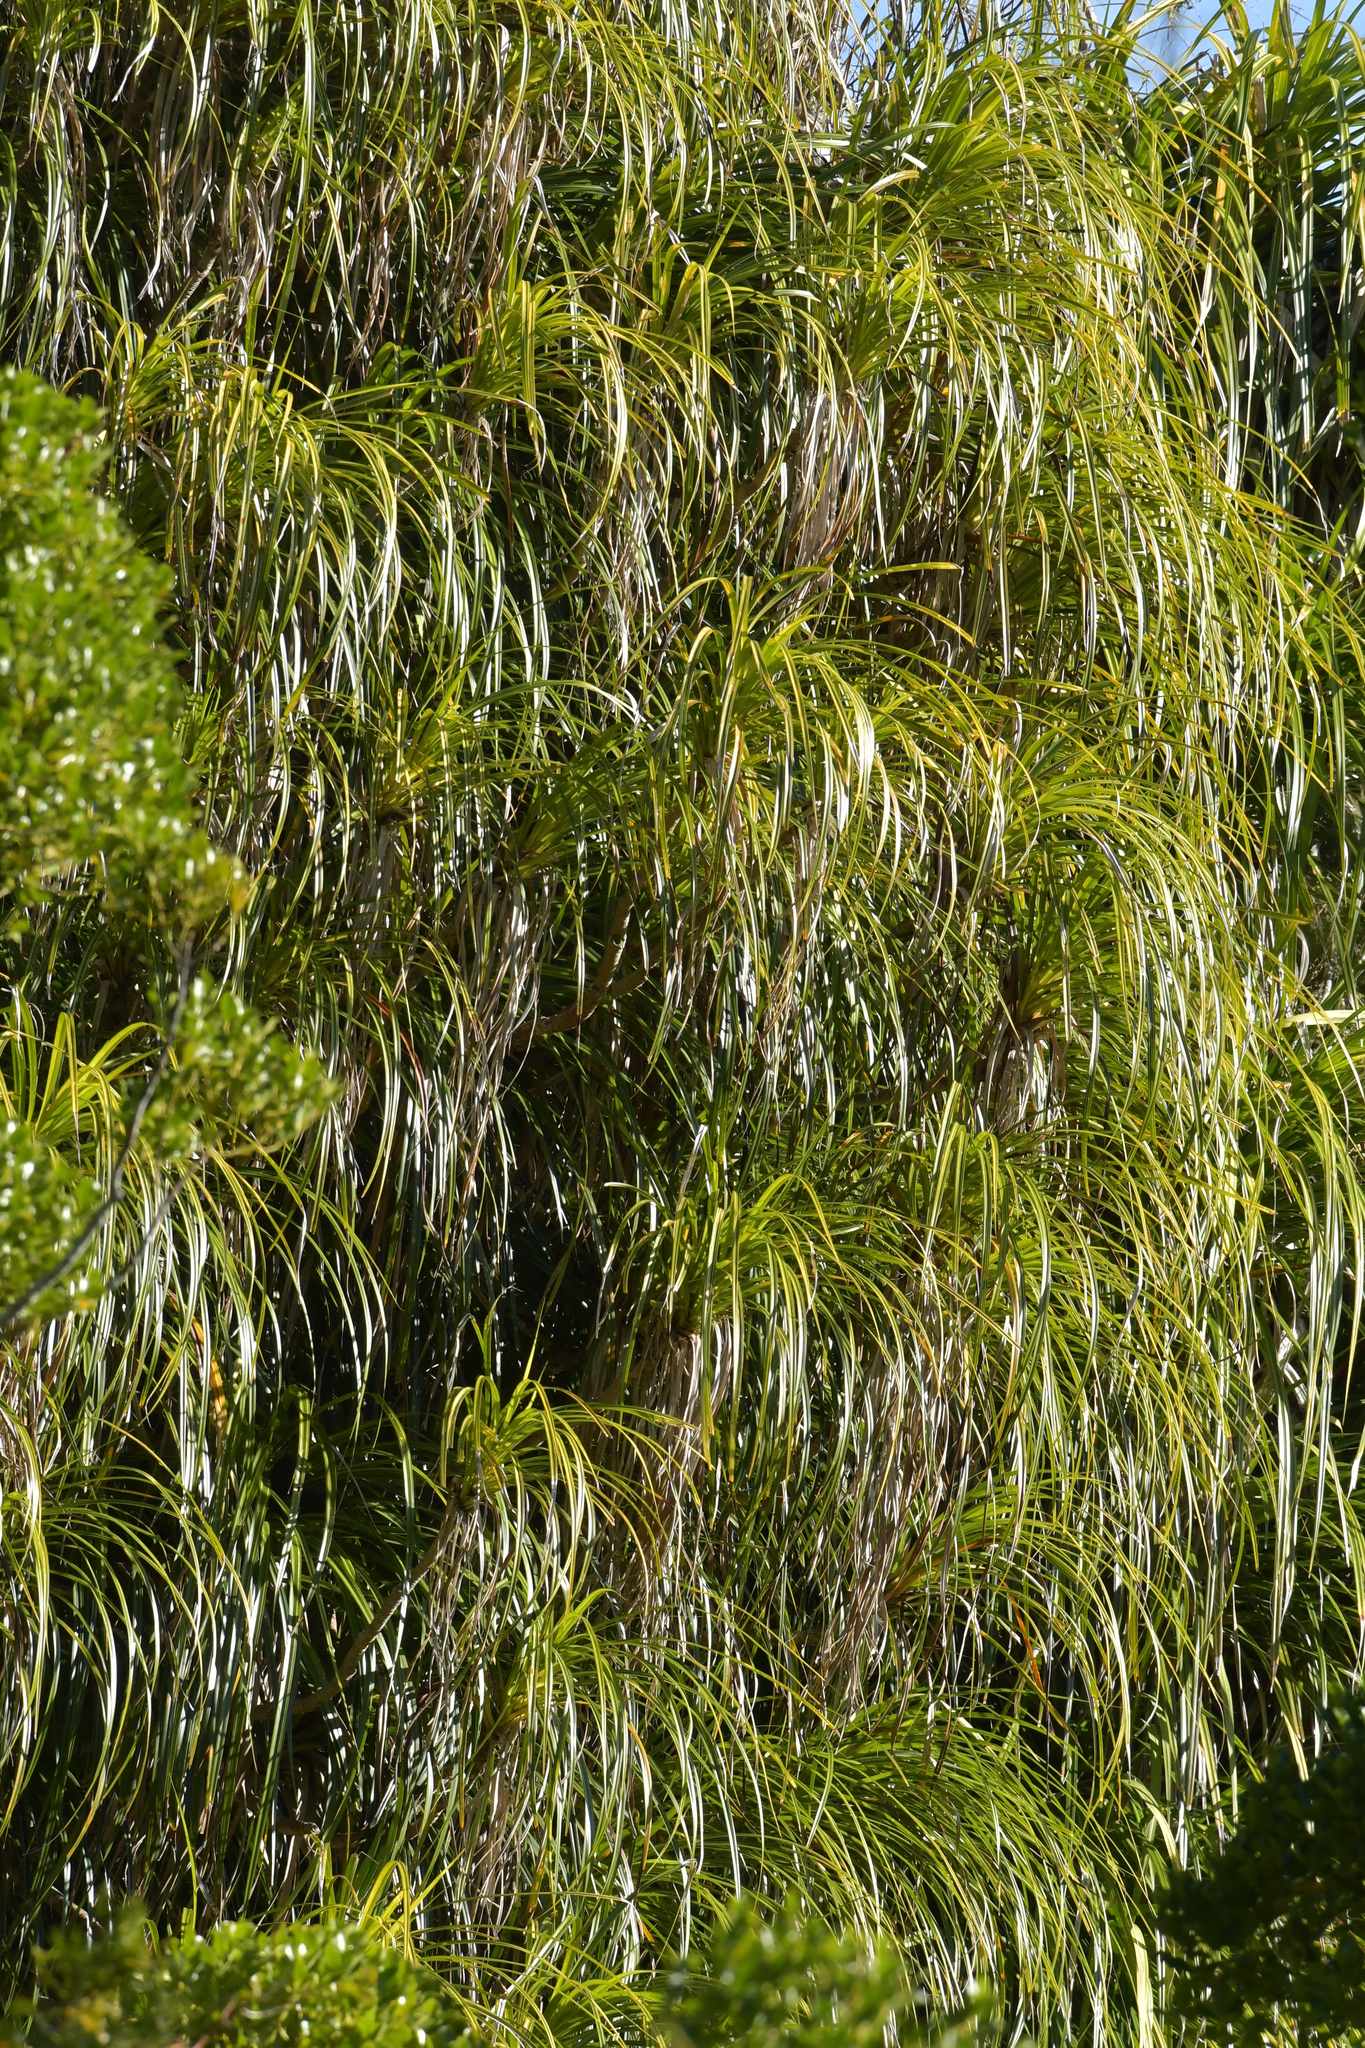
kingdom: Plantae
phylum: Tracheophyta
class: Liliopsida
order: Pandanales
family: Pandanaceae
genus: Freycinetia
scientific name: Freycinetia banksii
